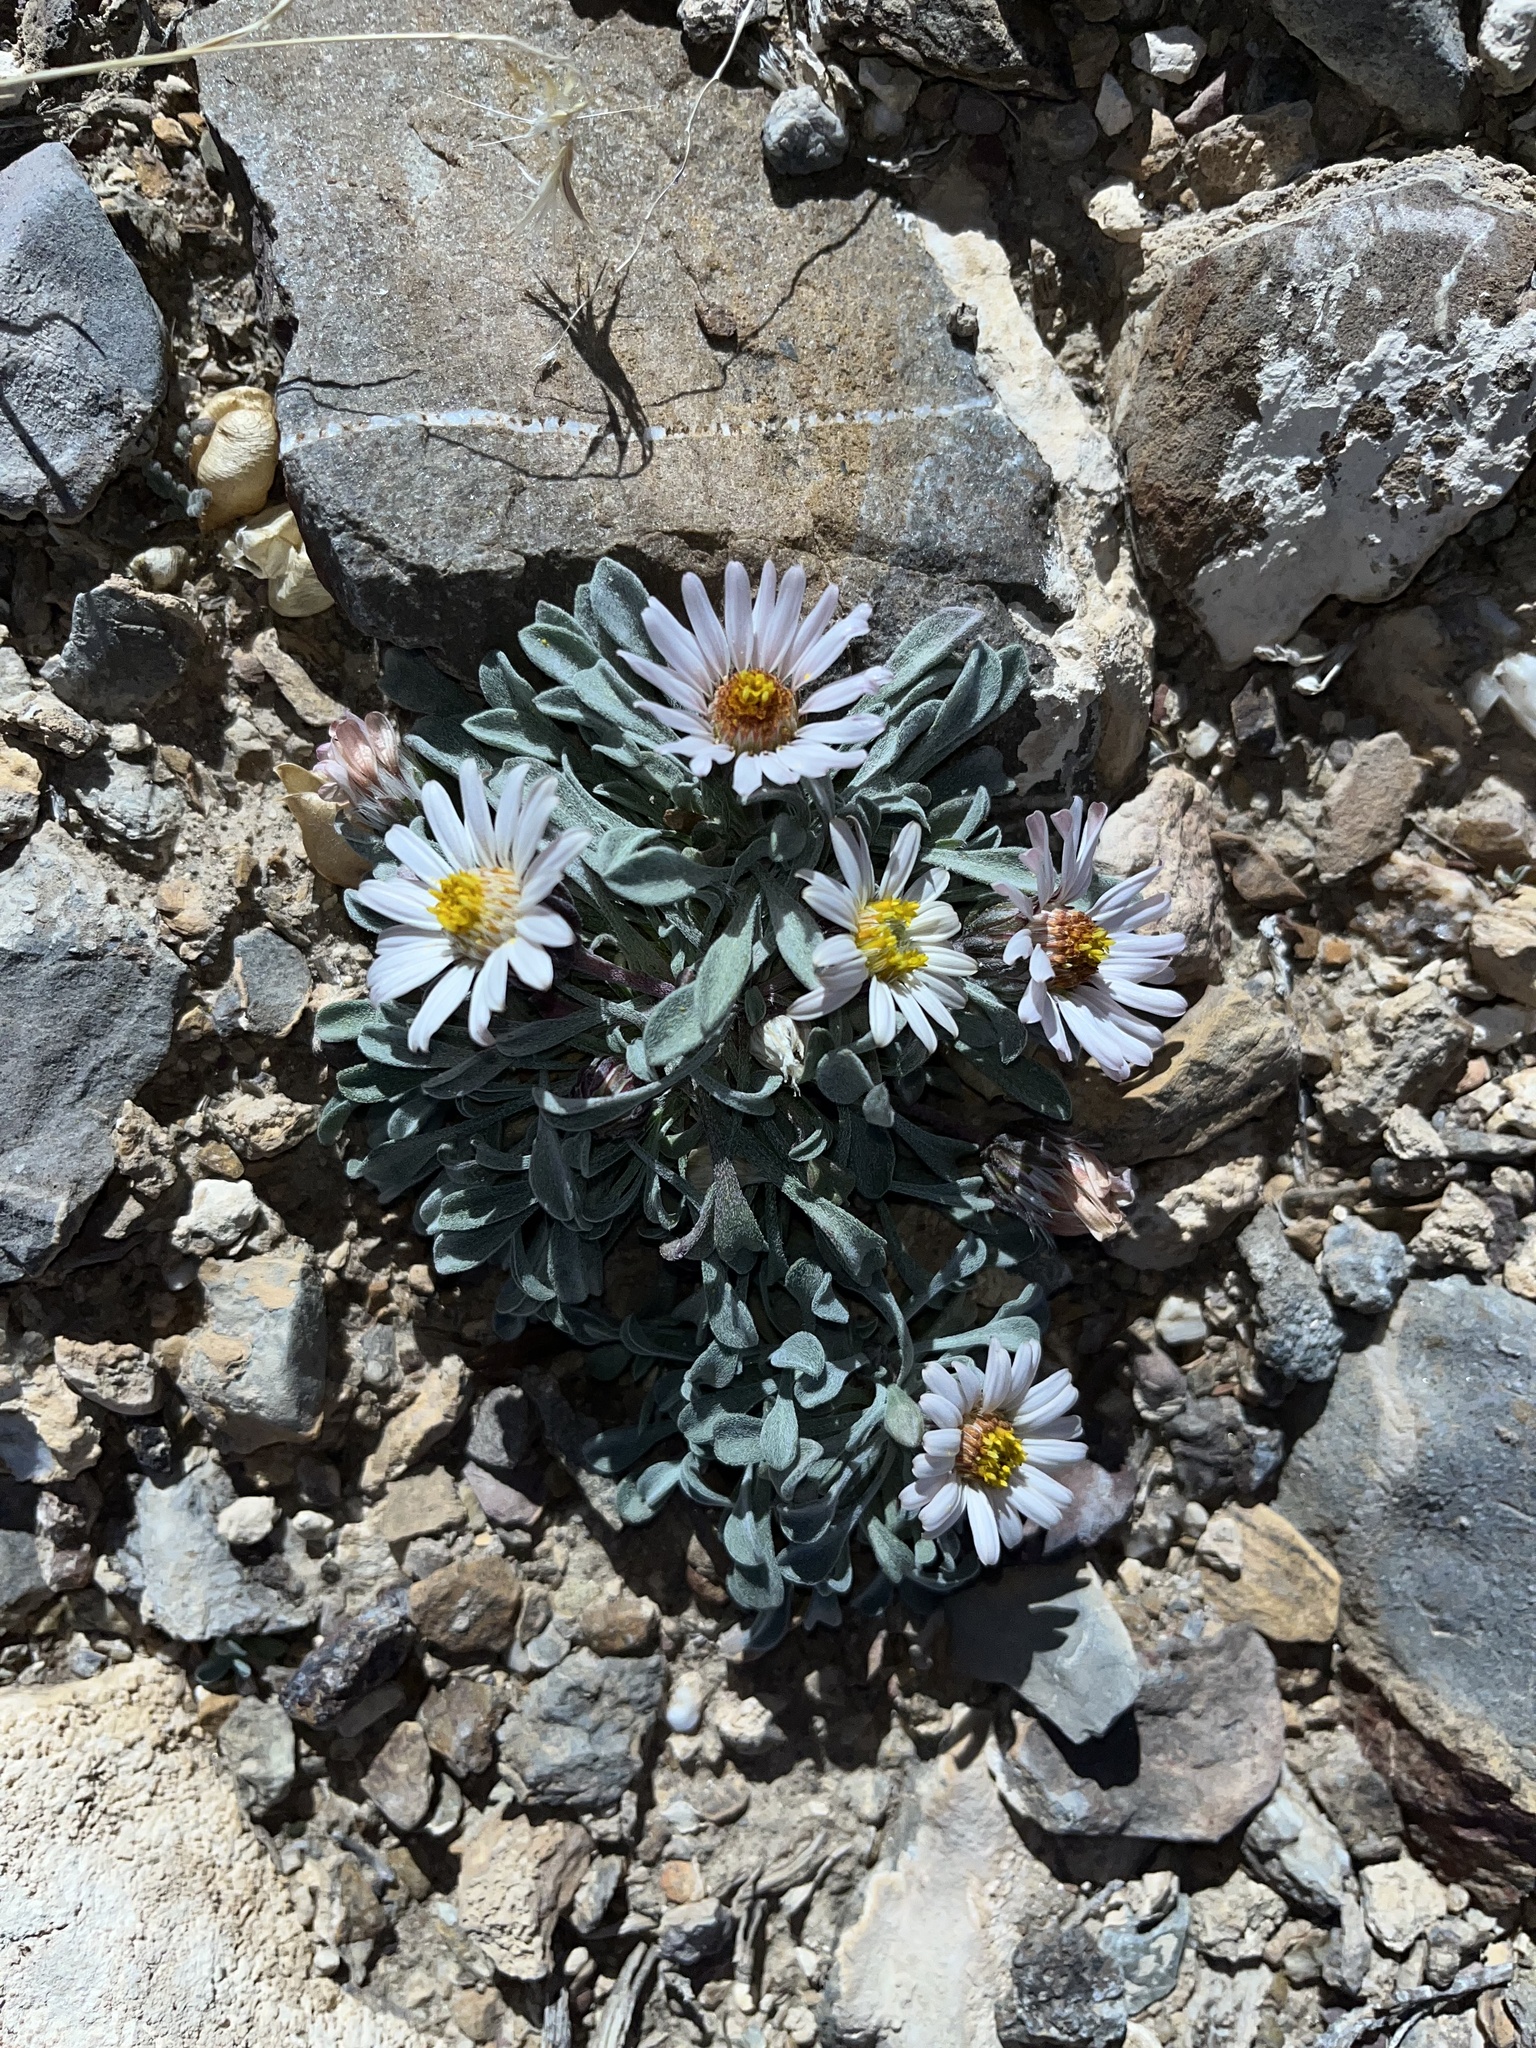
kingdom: Plantae
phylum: Tracheophyta
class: Magnoliopsida
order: Asterales
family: Asteraceae
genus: Townsendia
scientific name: Townsendia scapigera
